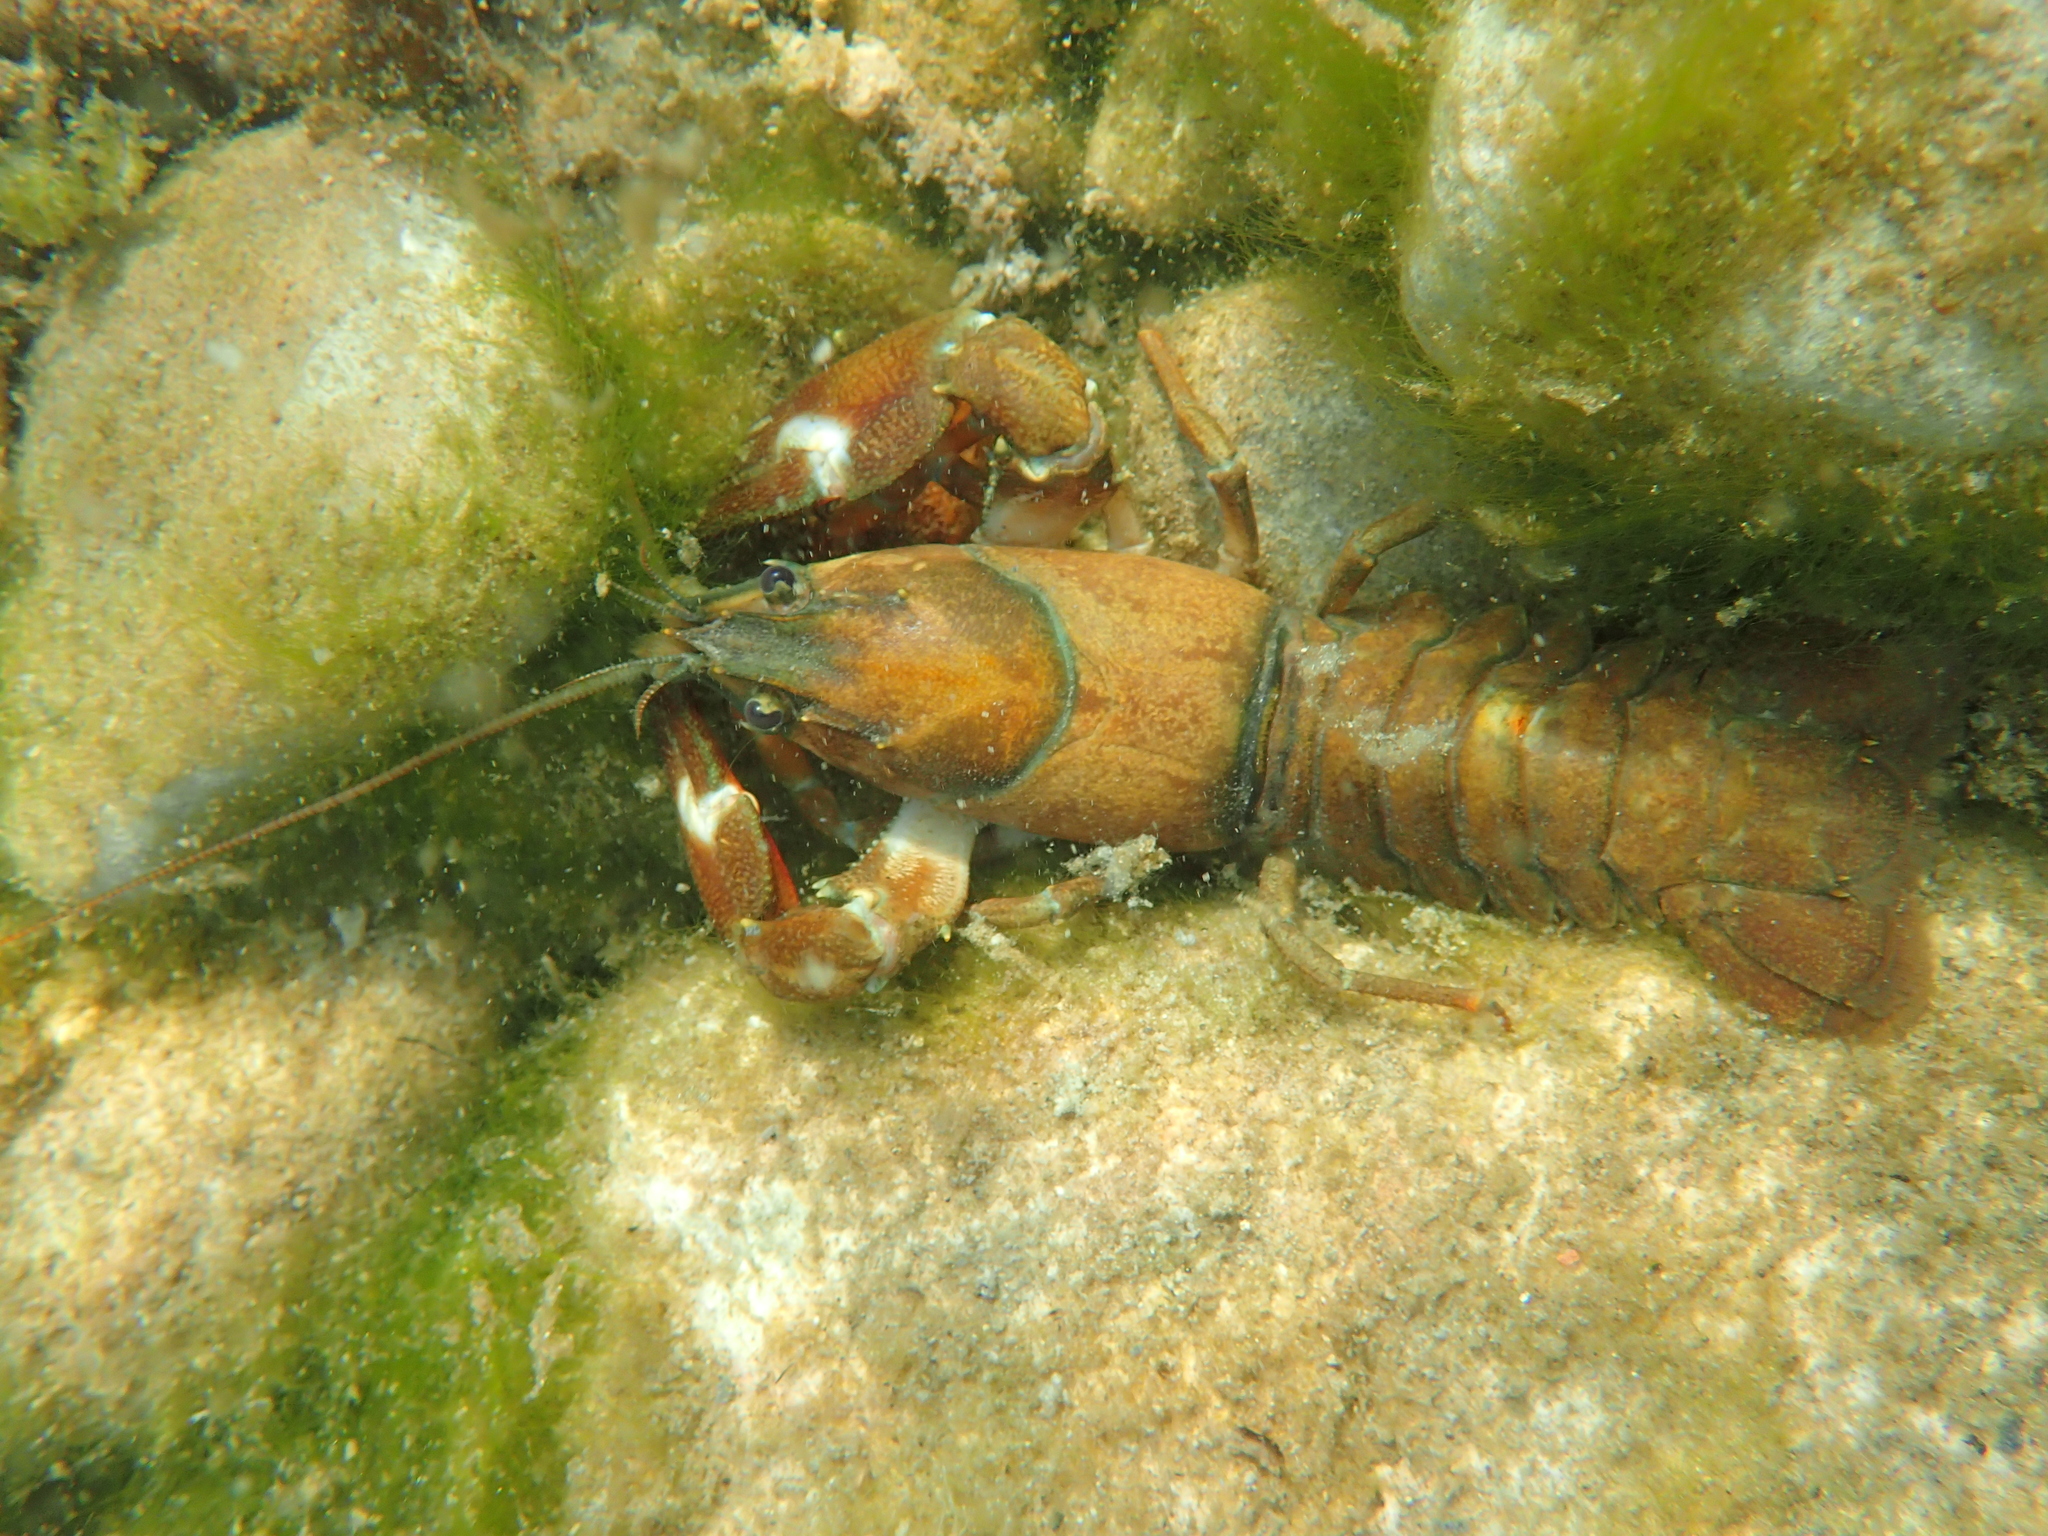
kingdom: Animalia
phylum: Arthropoda
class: Malacostraca
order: Decapoda
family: Astacidae
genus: Pacifastacus
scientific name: Pacifastacus leniusculus
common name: Signal crayfish
